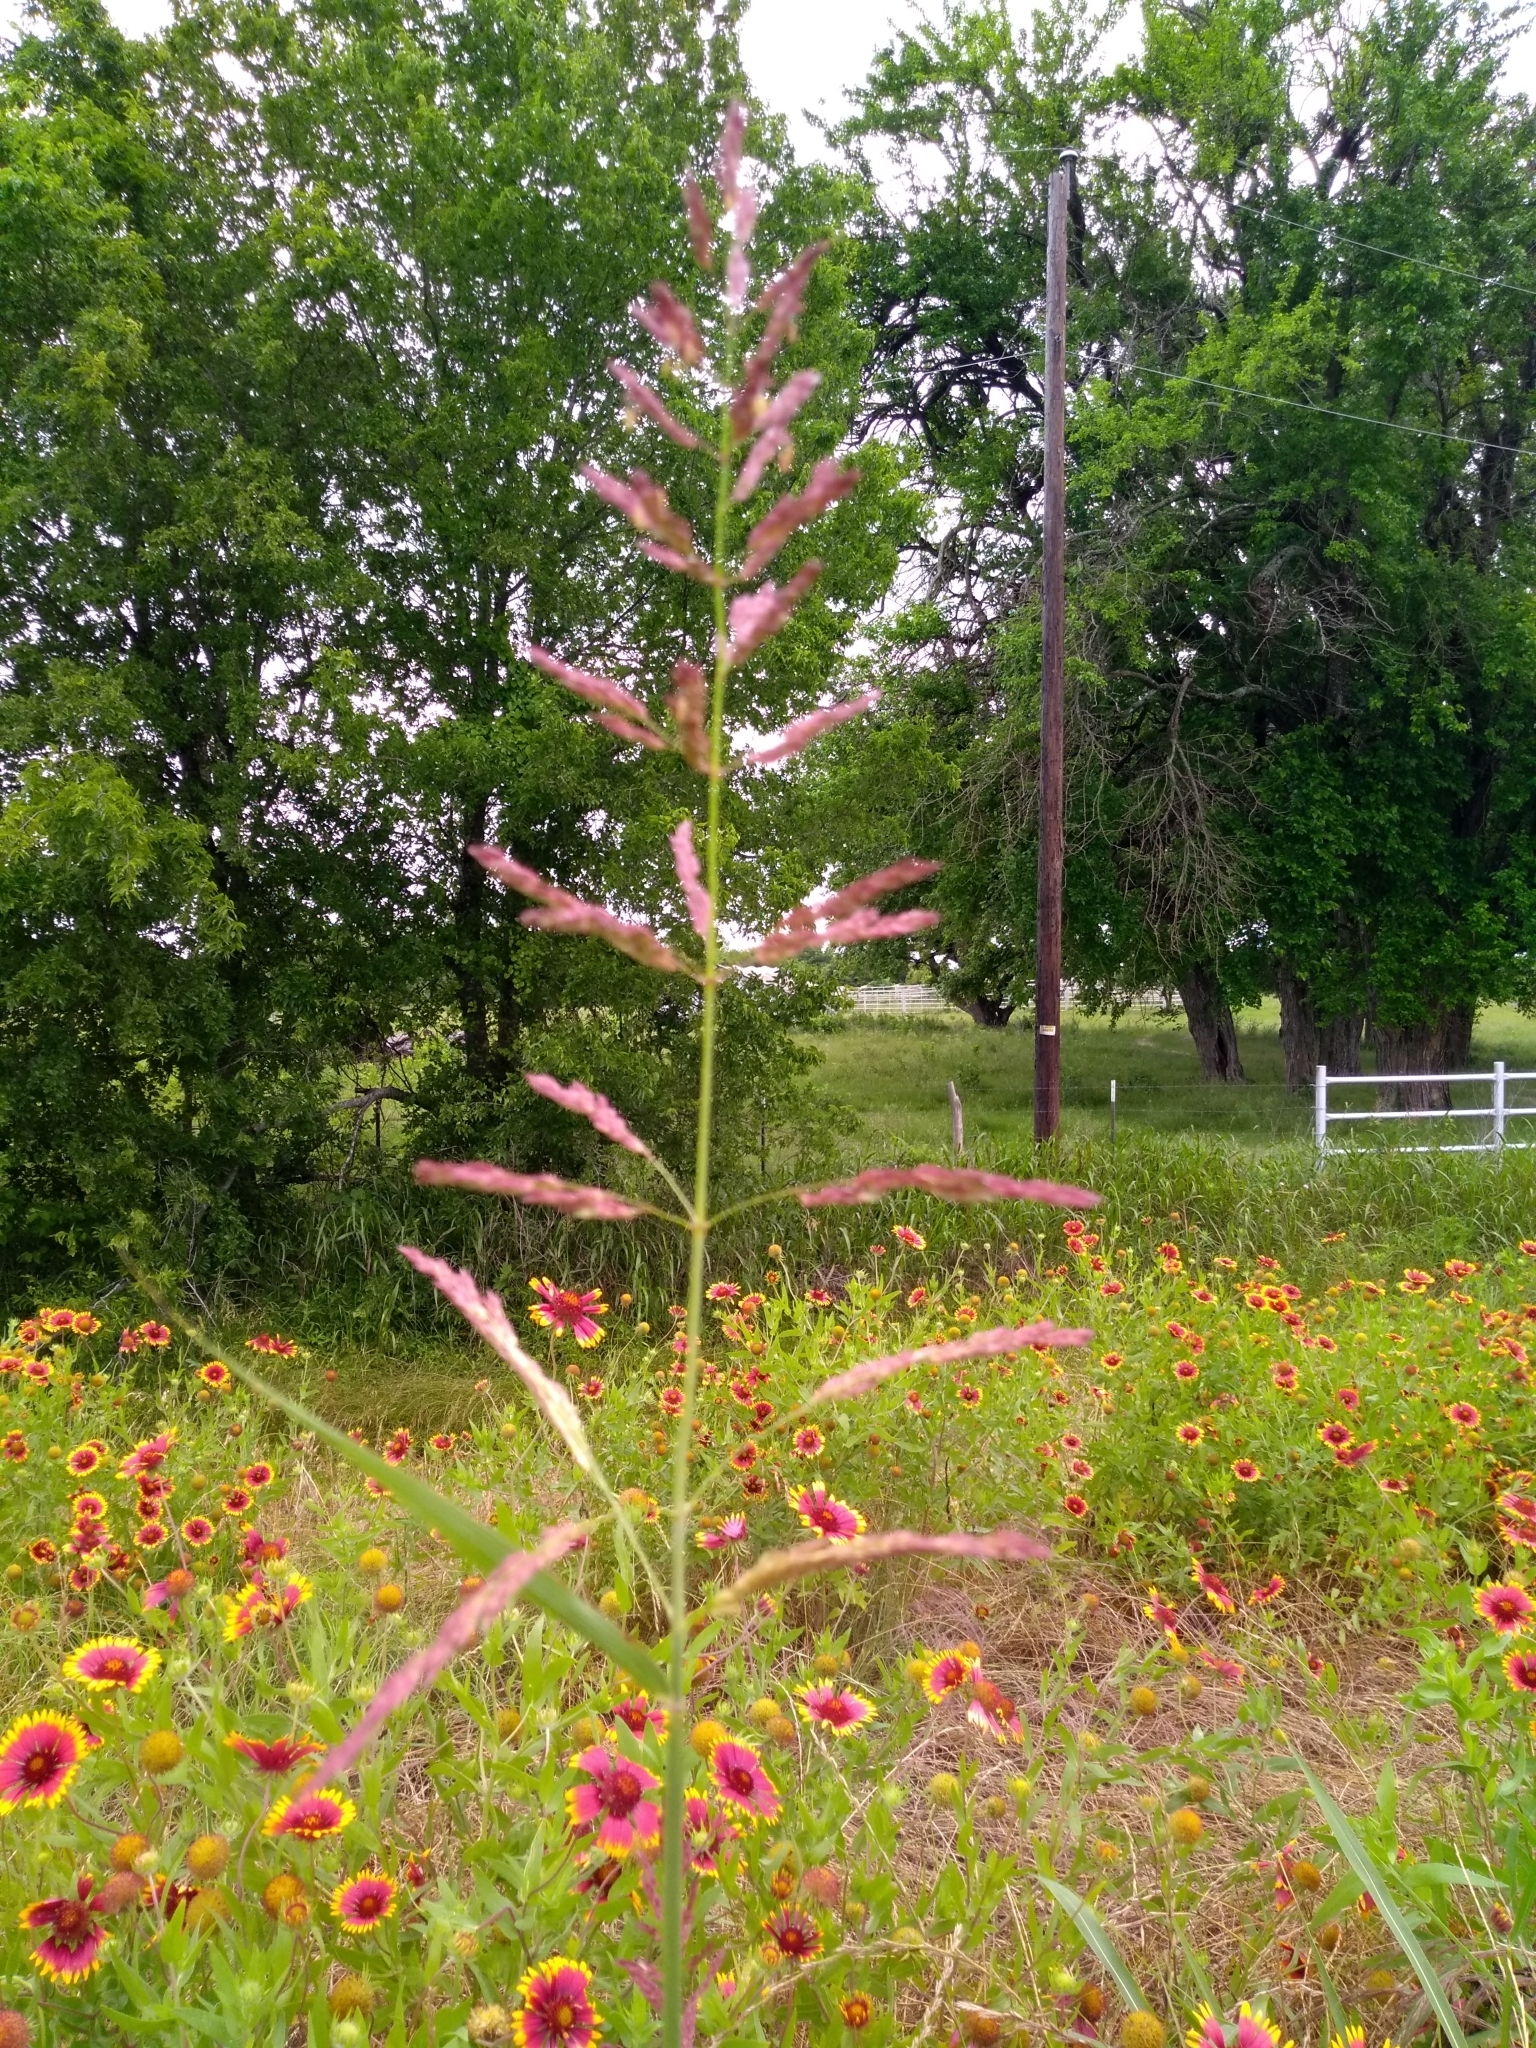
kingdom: Plantae
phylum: Tracheophyta
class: Liliopsida
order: Poales
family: Poaceae
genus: Sorghum
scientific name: Sorghum halepense
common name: Johnson-grass
